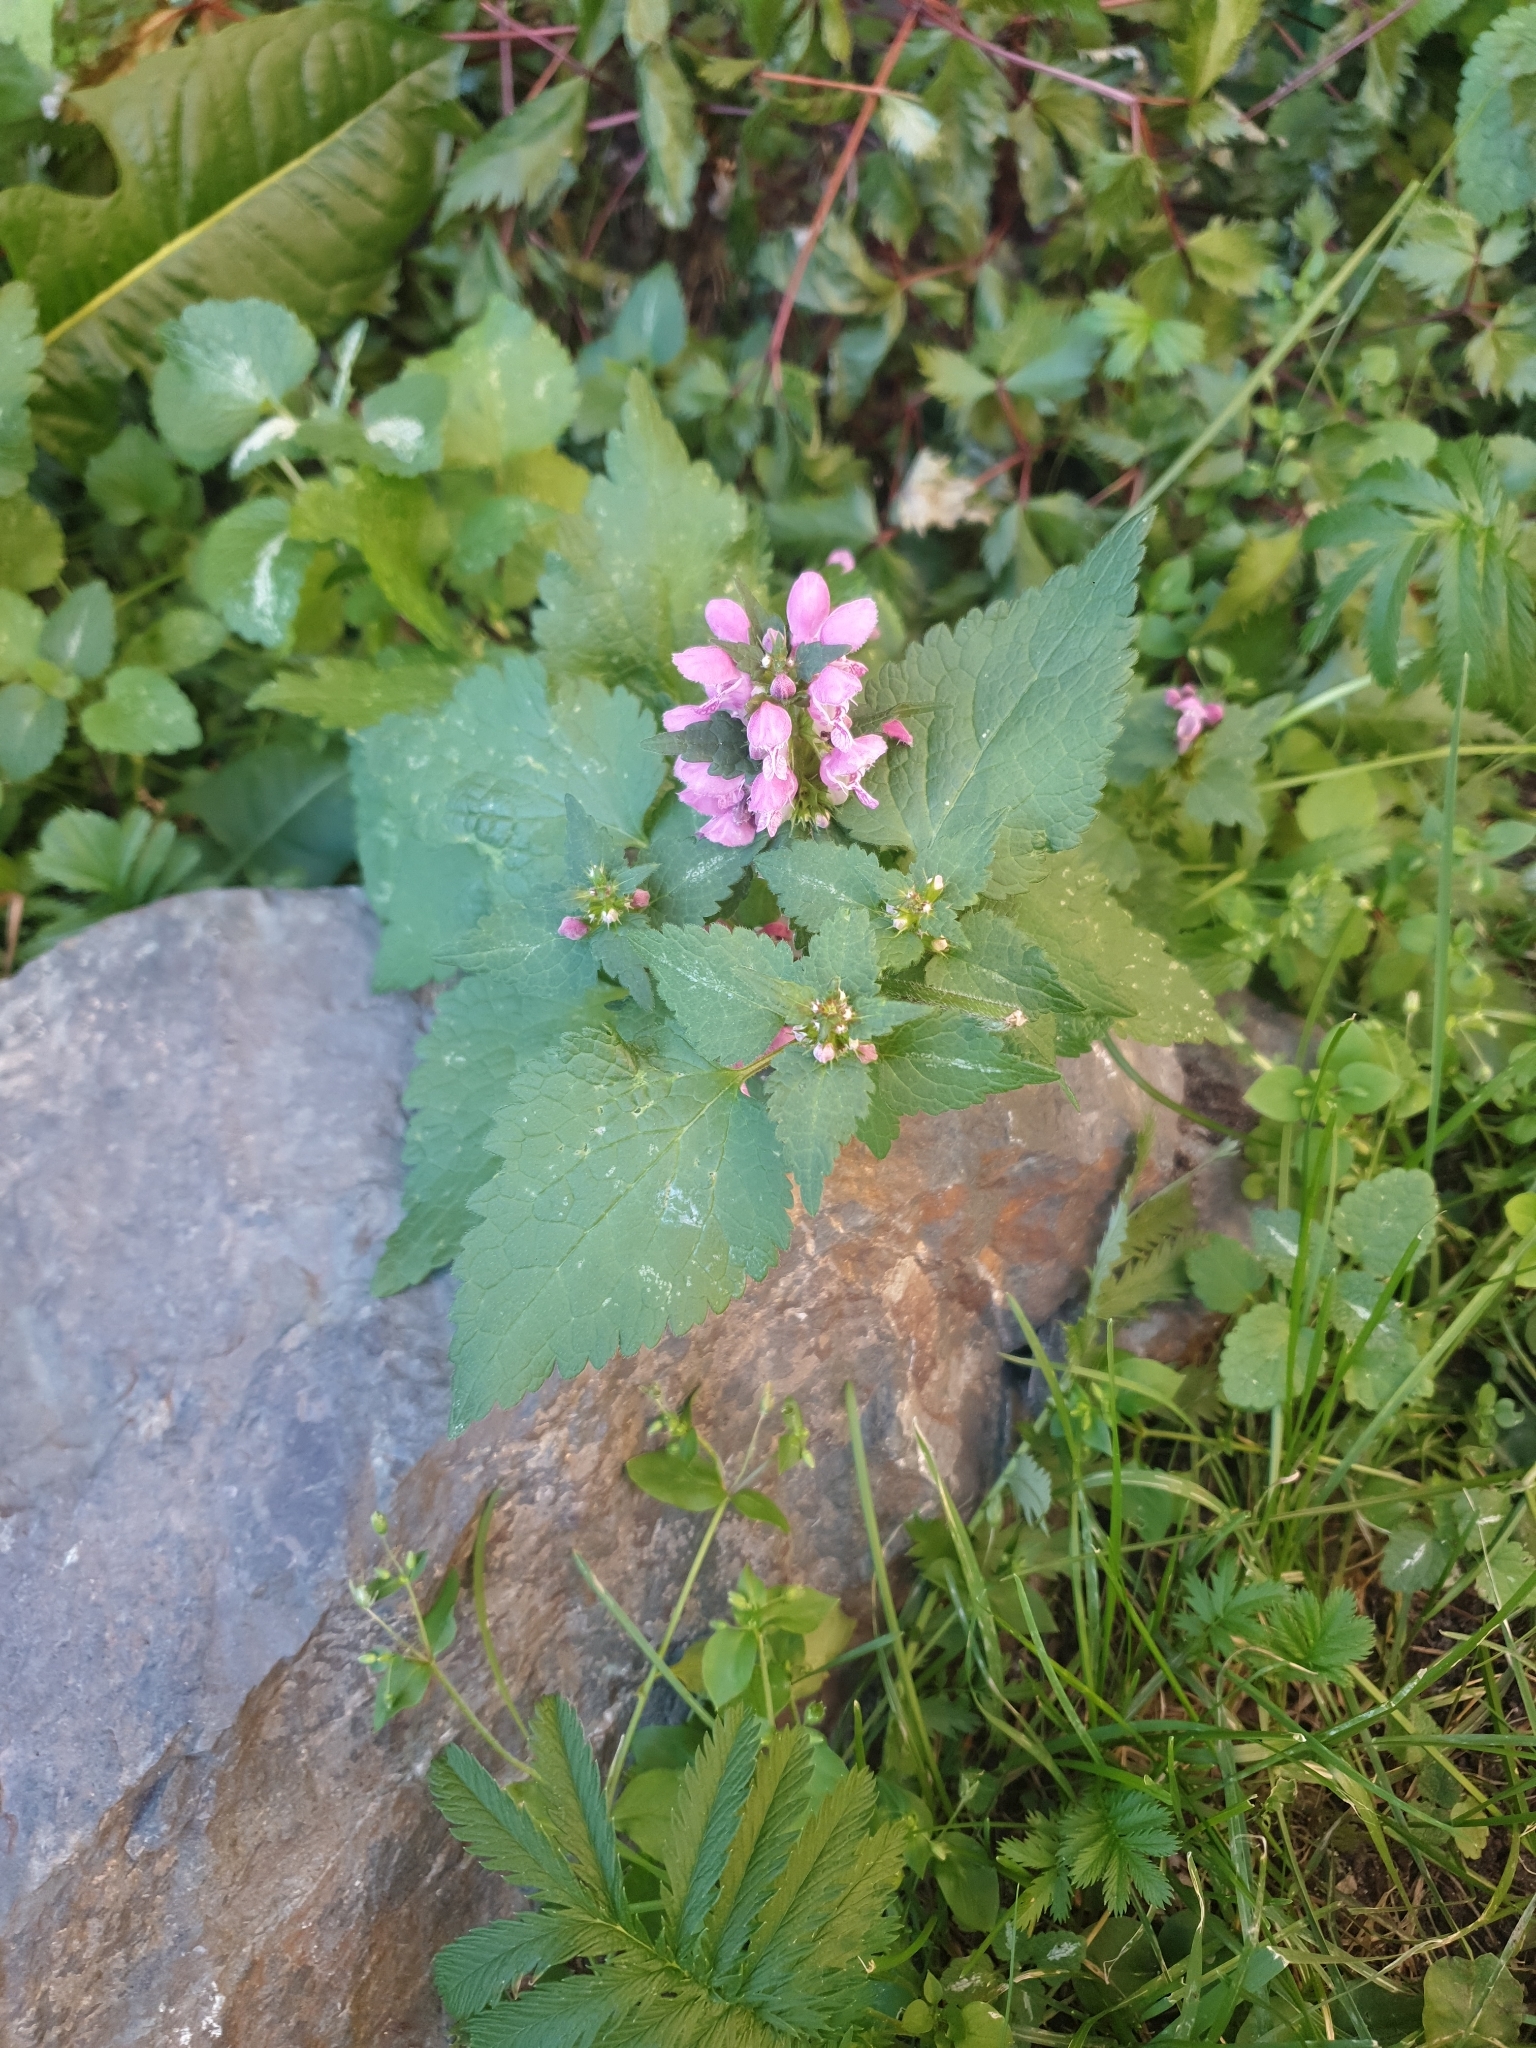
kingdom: Plantae
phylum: Tracheophyta
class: Magnoliopsida
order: Lamiales
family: Lamiaceae
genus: Lamium
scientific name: Lamium maculatum
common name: Spotted dead-nettle
